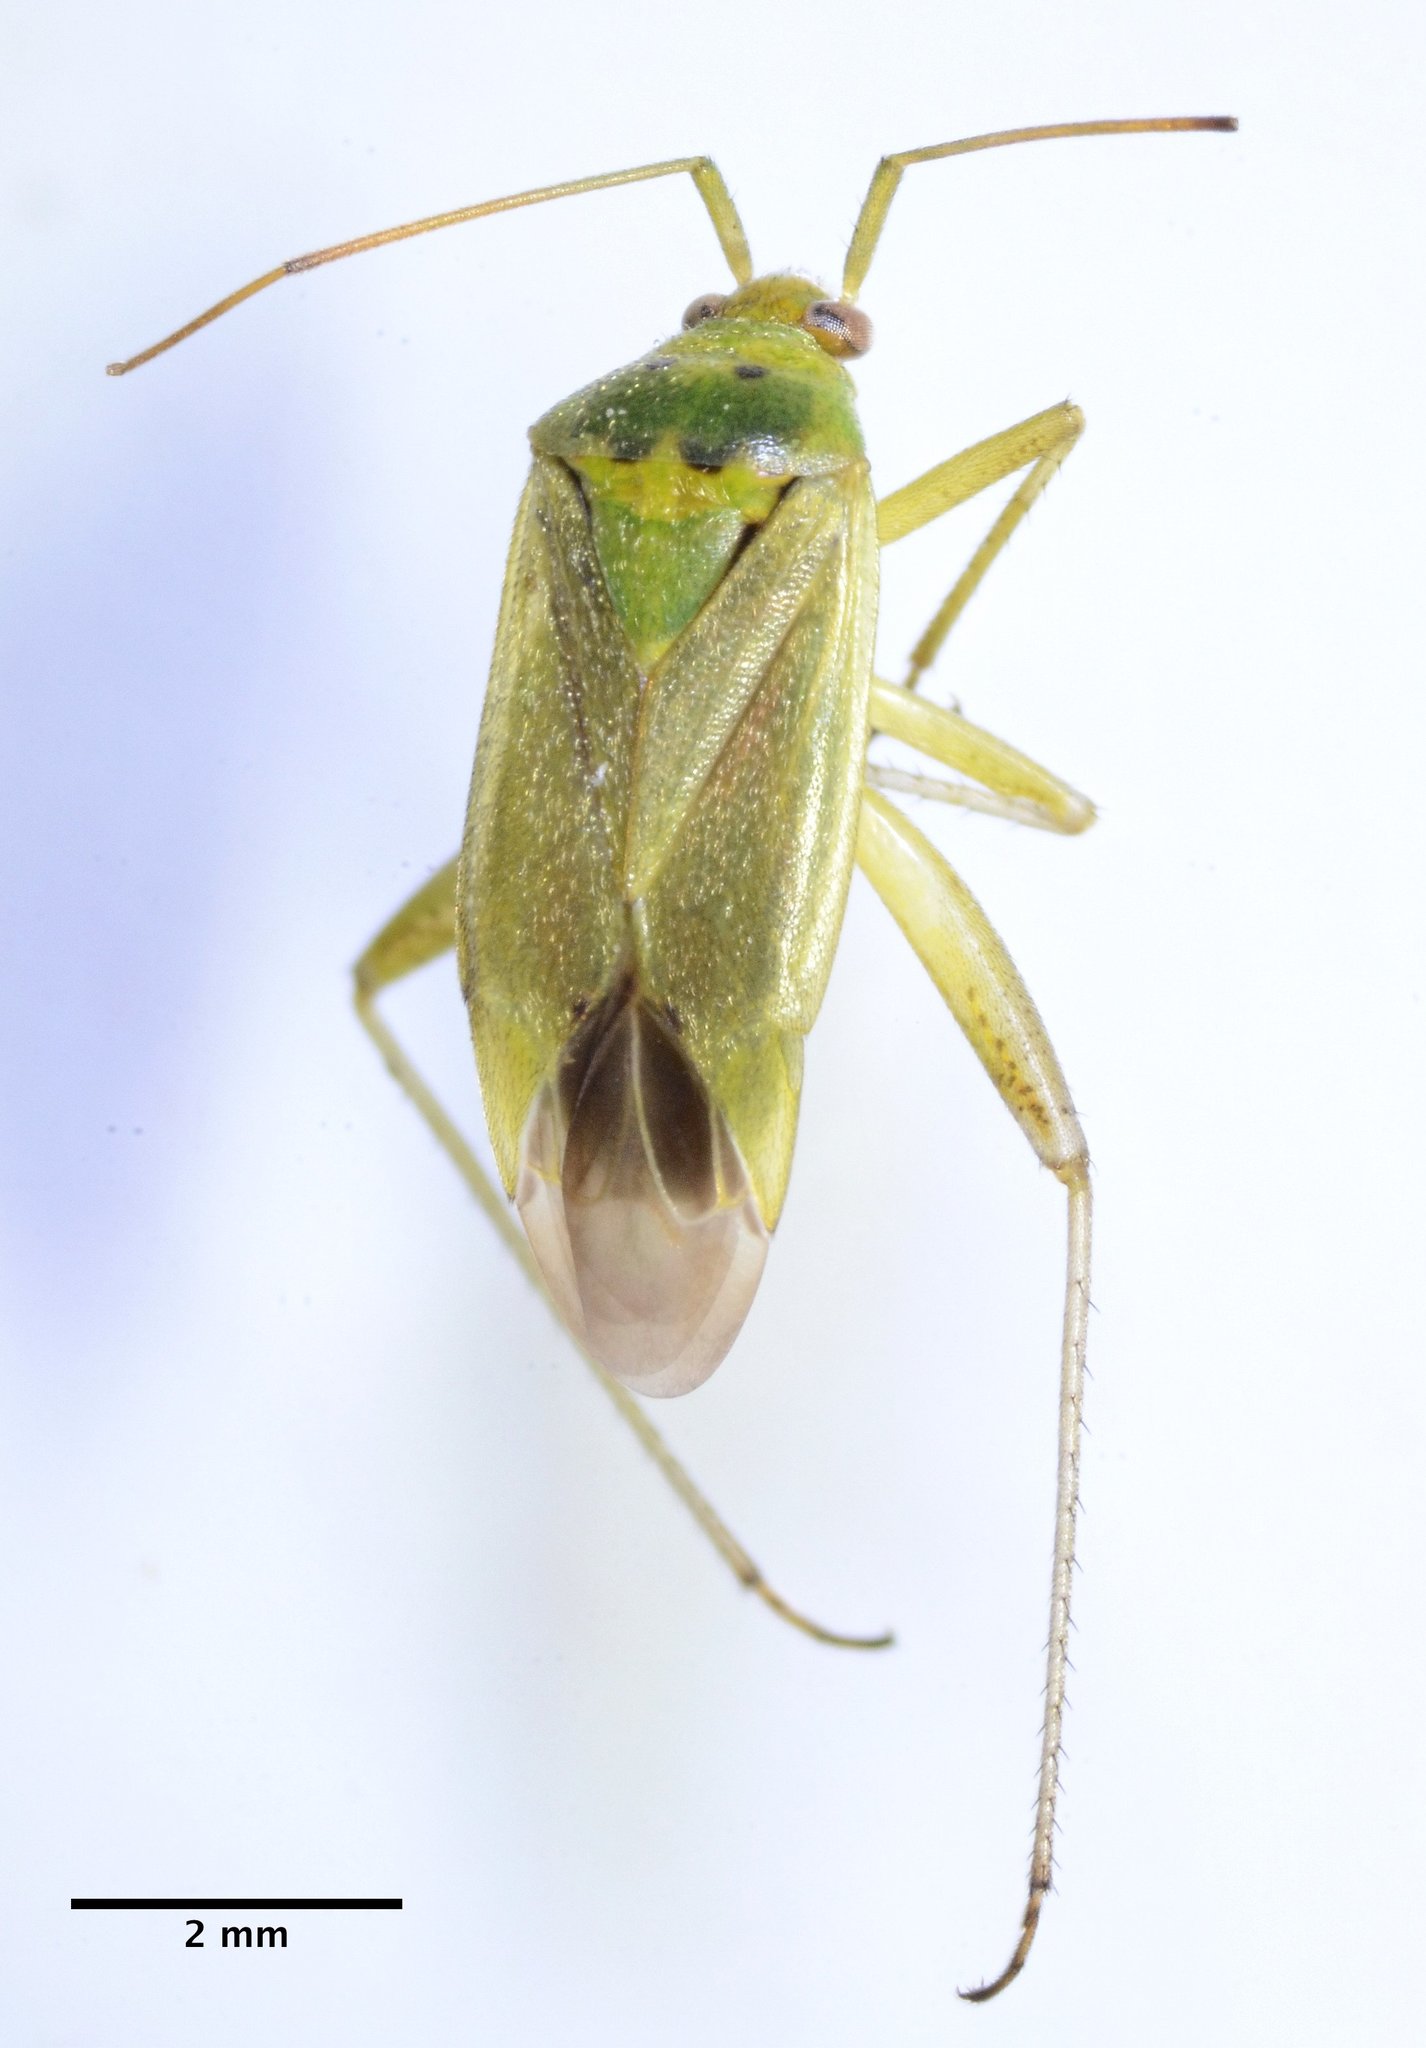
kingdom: Animalia
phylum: Arthropoda
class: Insecta
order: Hemiptera
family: Miridae
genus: Closterotomus
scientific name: Closterotomus norvegicus
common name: Plant bug
